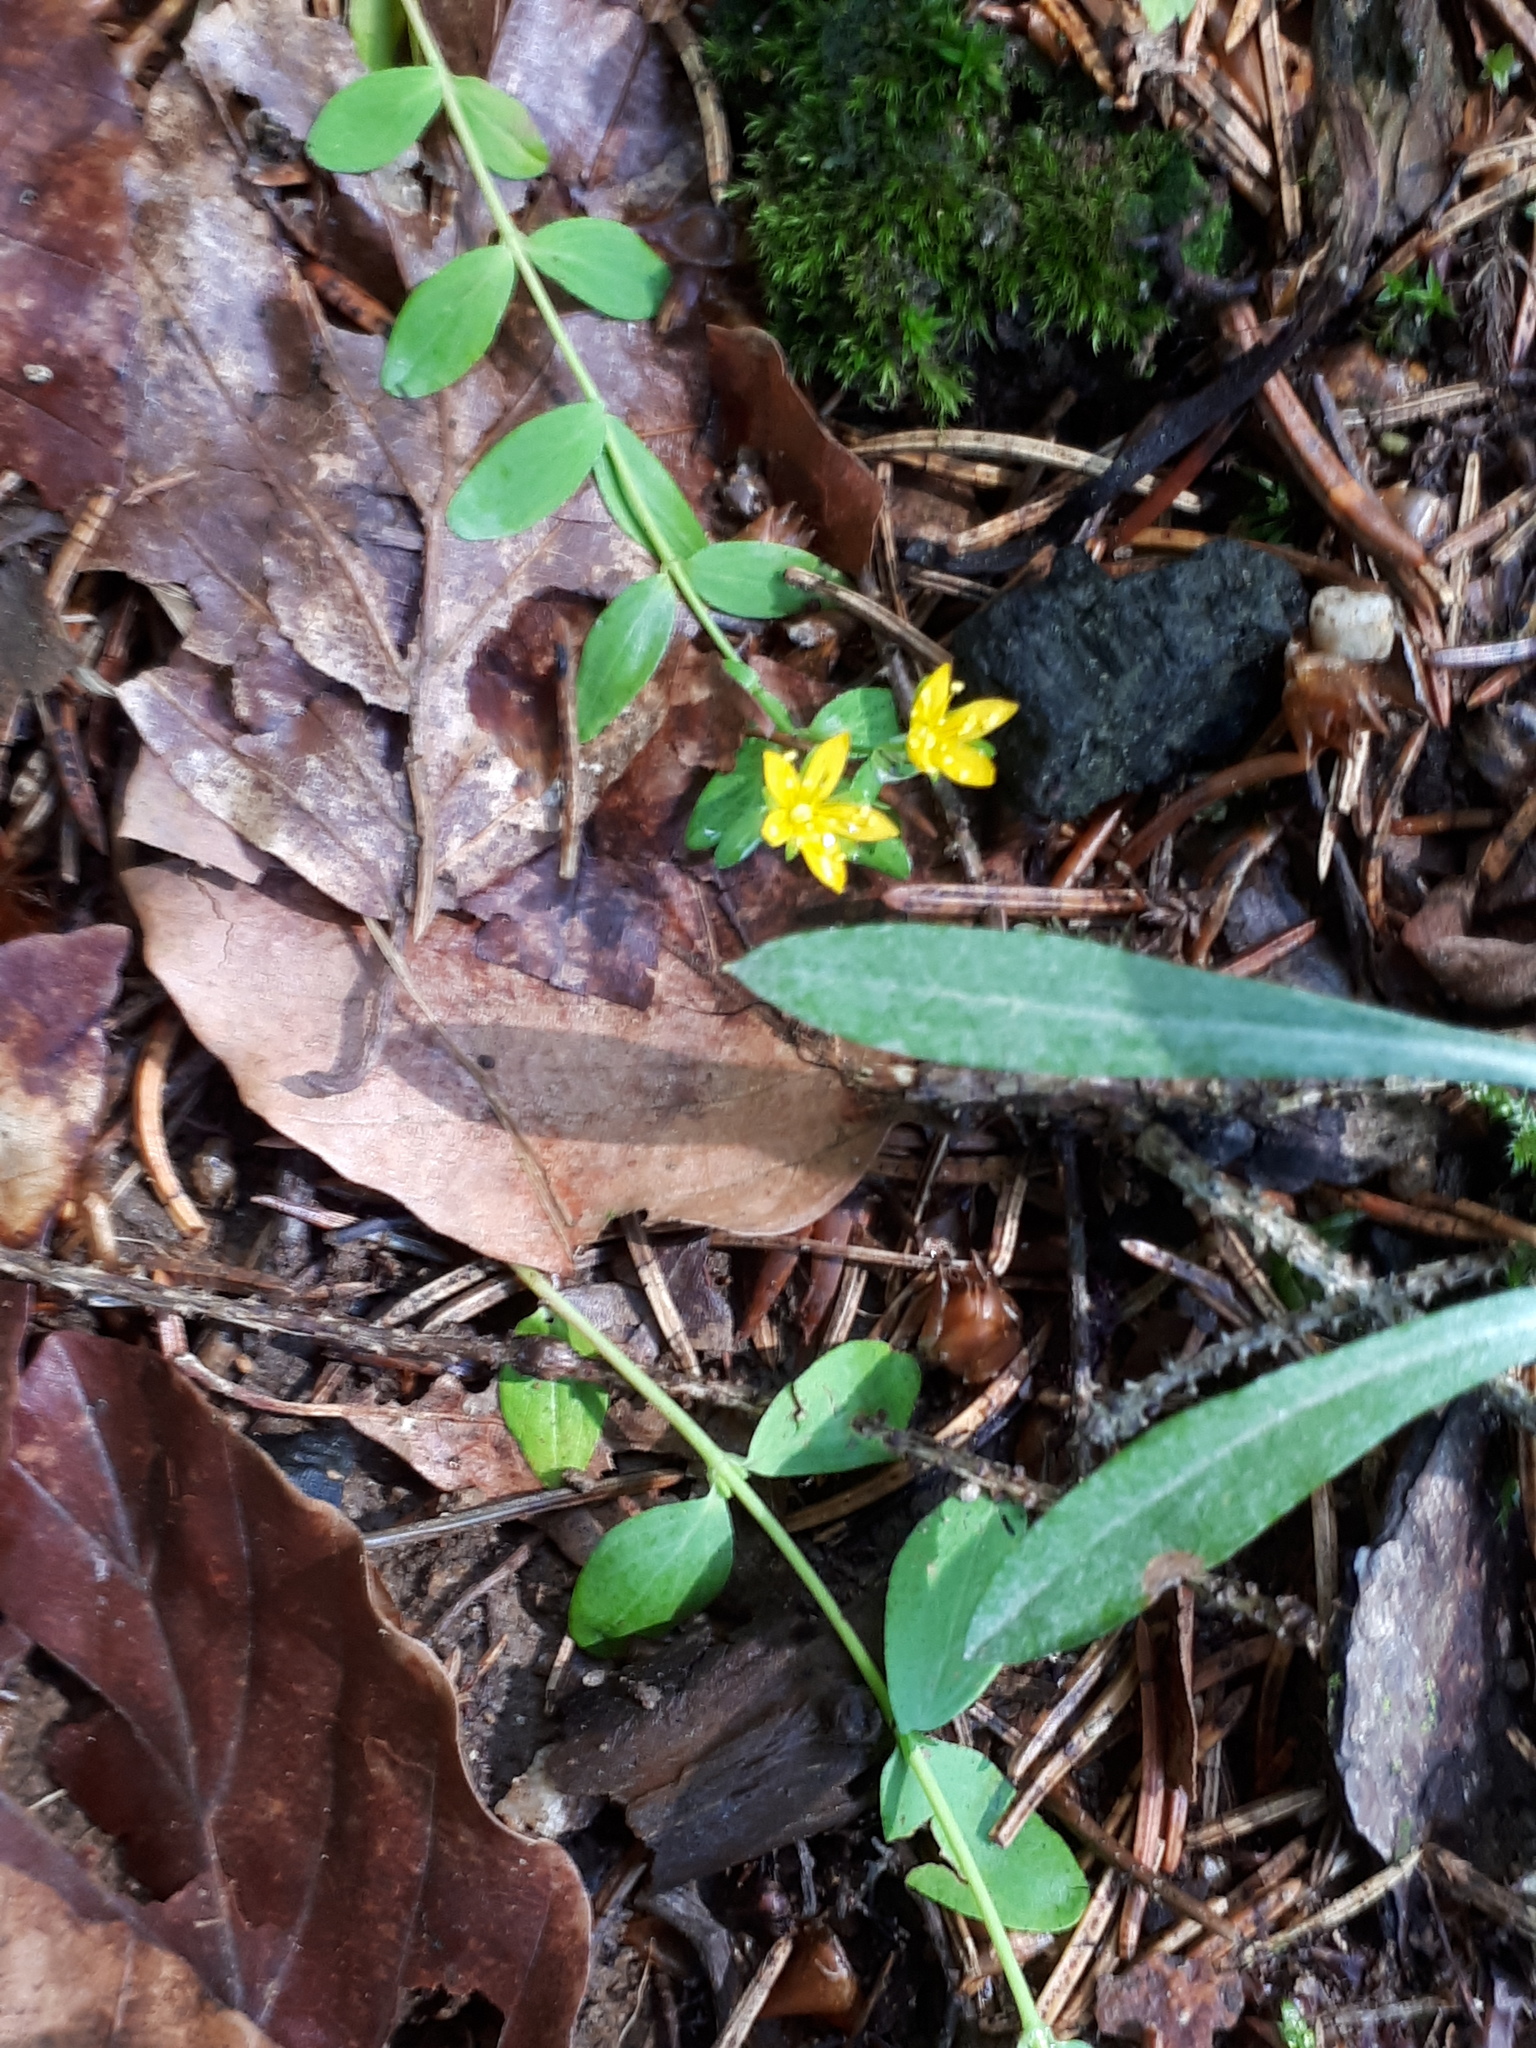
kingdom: Plantae
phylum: Tracheophyta
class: Magnoliopsida
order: Malpighiales
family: Hypericaceae
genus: Hypericum
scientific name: Hypericum humifusum
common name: Trailing st. john's-wort
